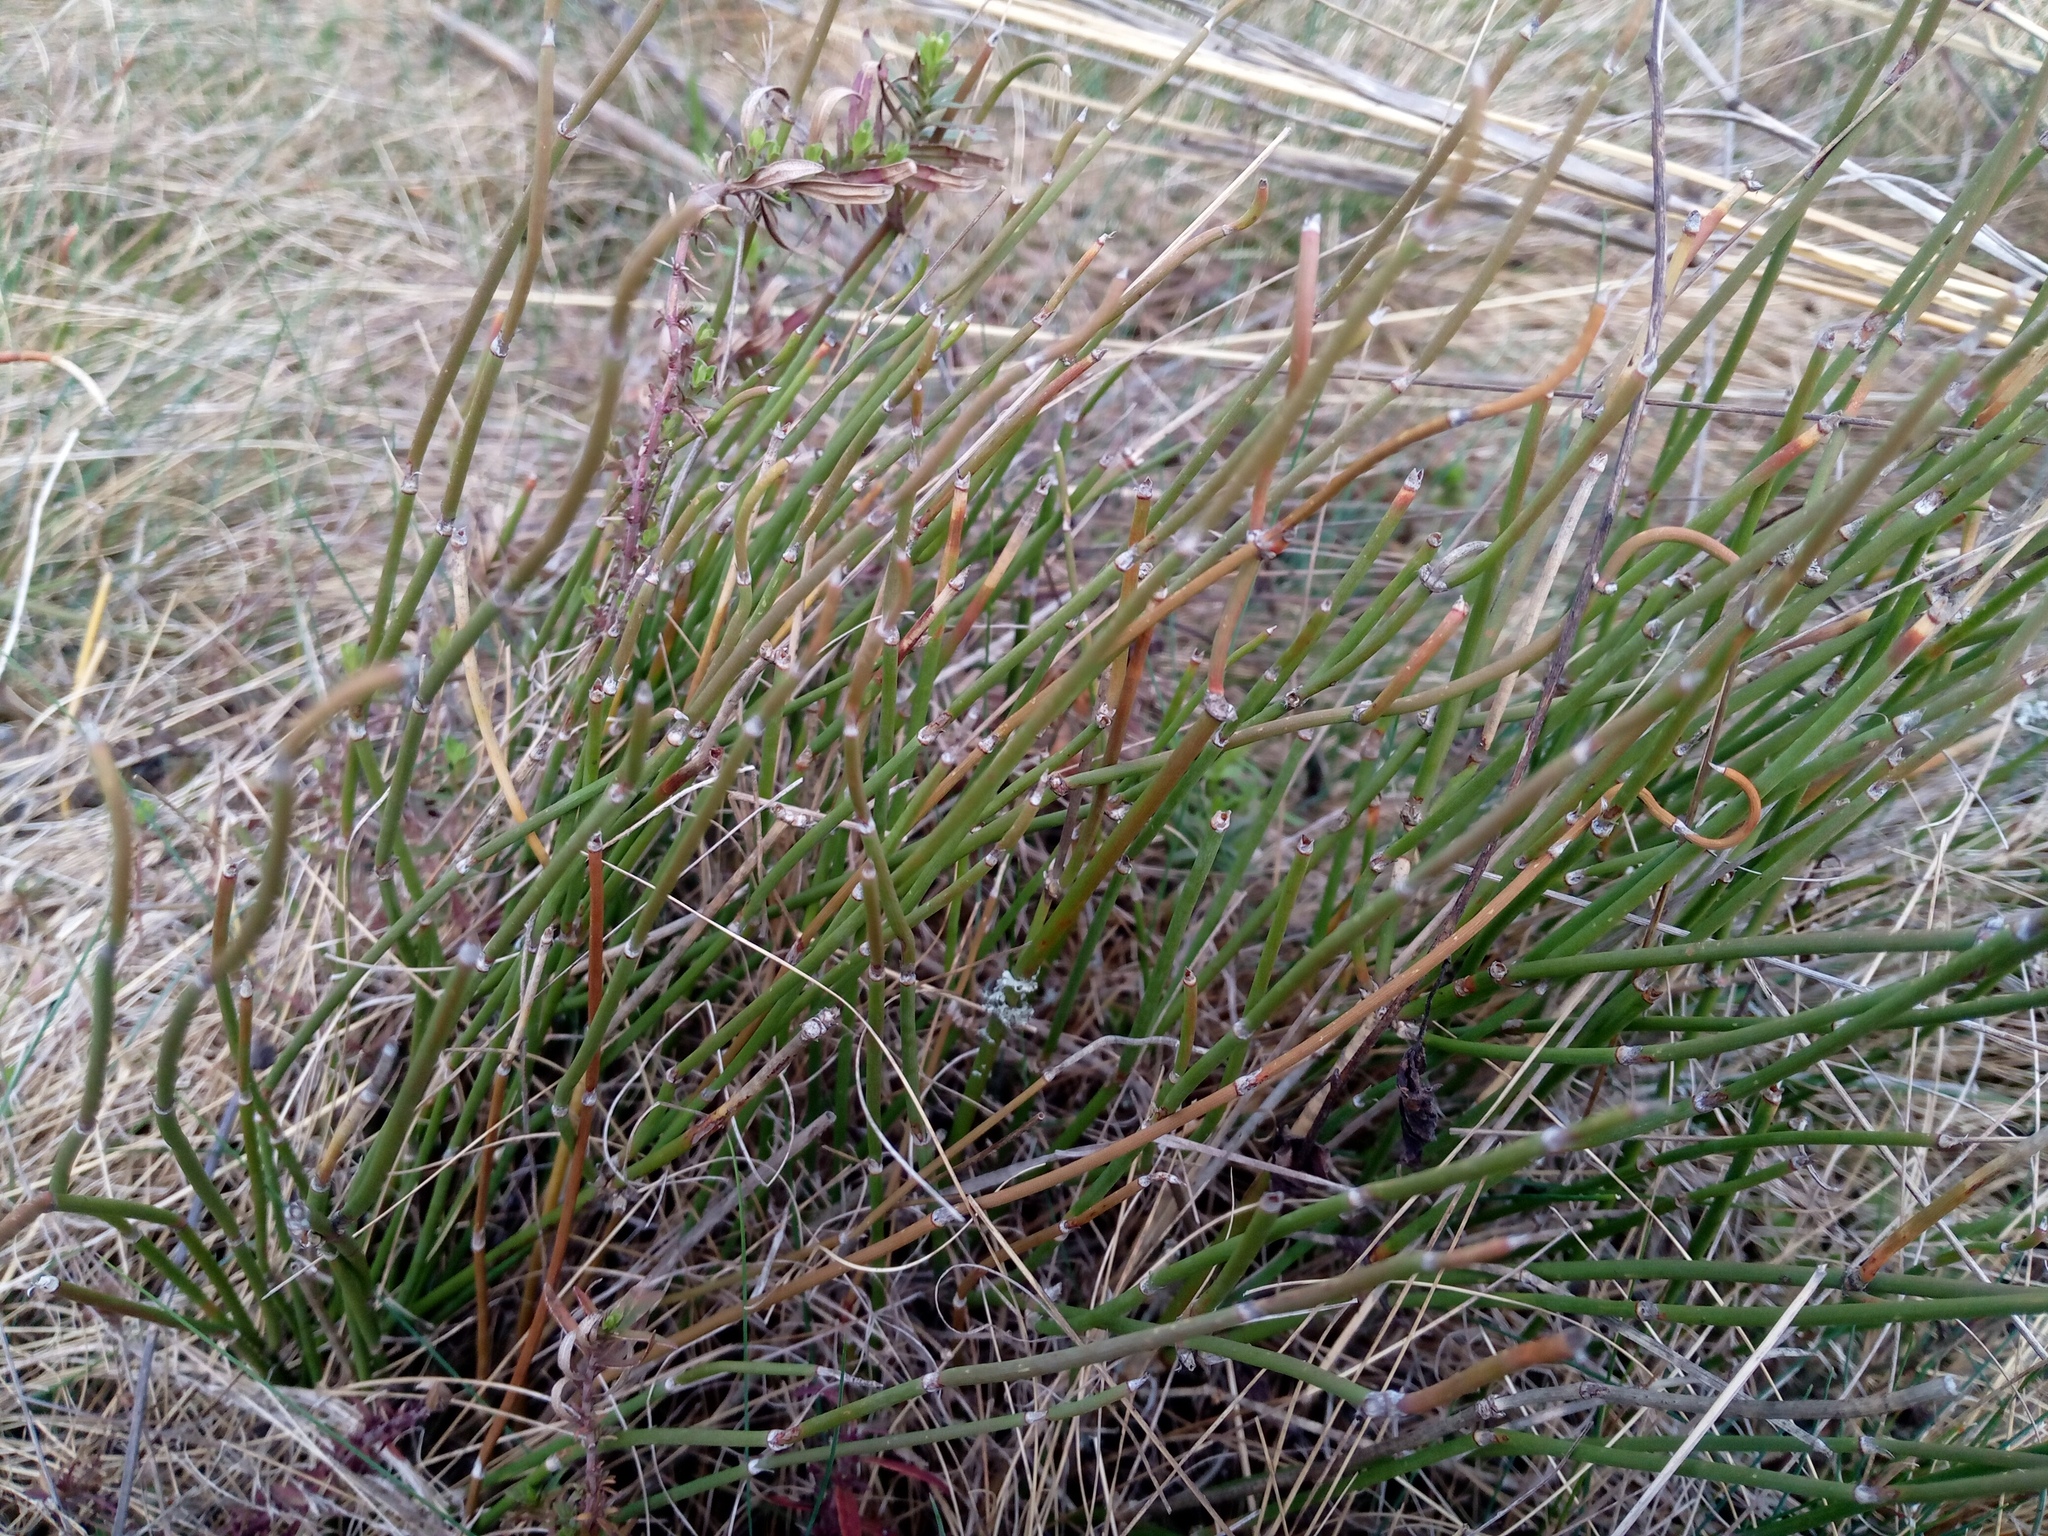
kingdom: Plantae
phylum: Tracheophyta
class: Gnetopsida
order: Ephedrales
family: Ephedraceae
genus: Ephedra
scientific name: Ephedra distachya
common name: Sea grape
